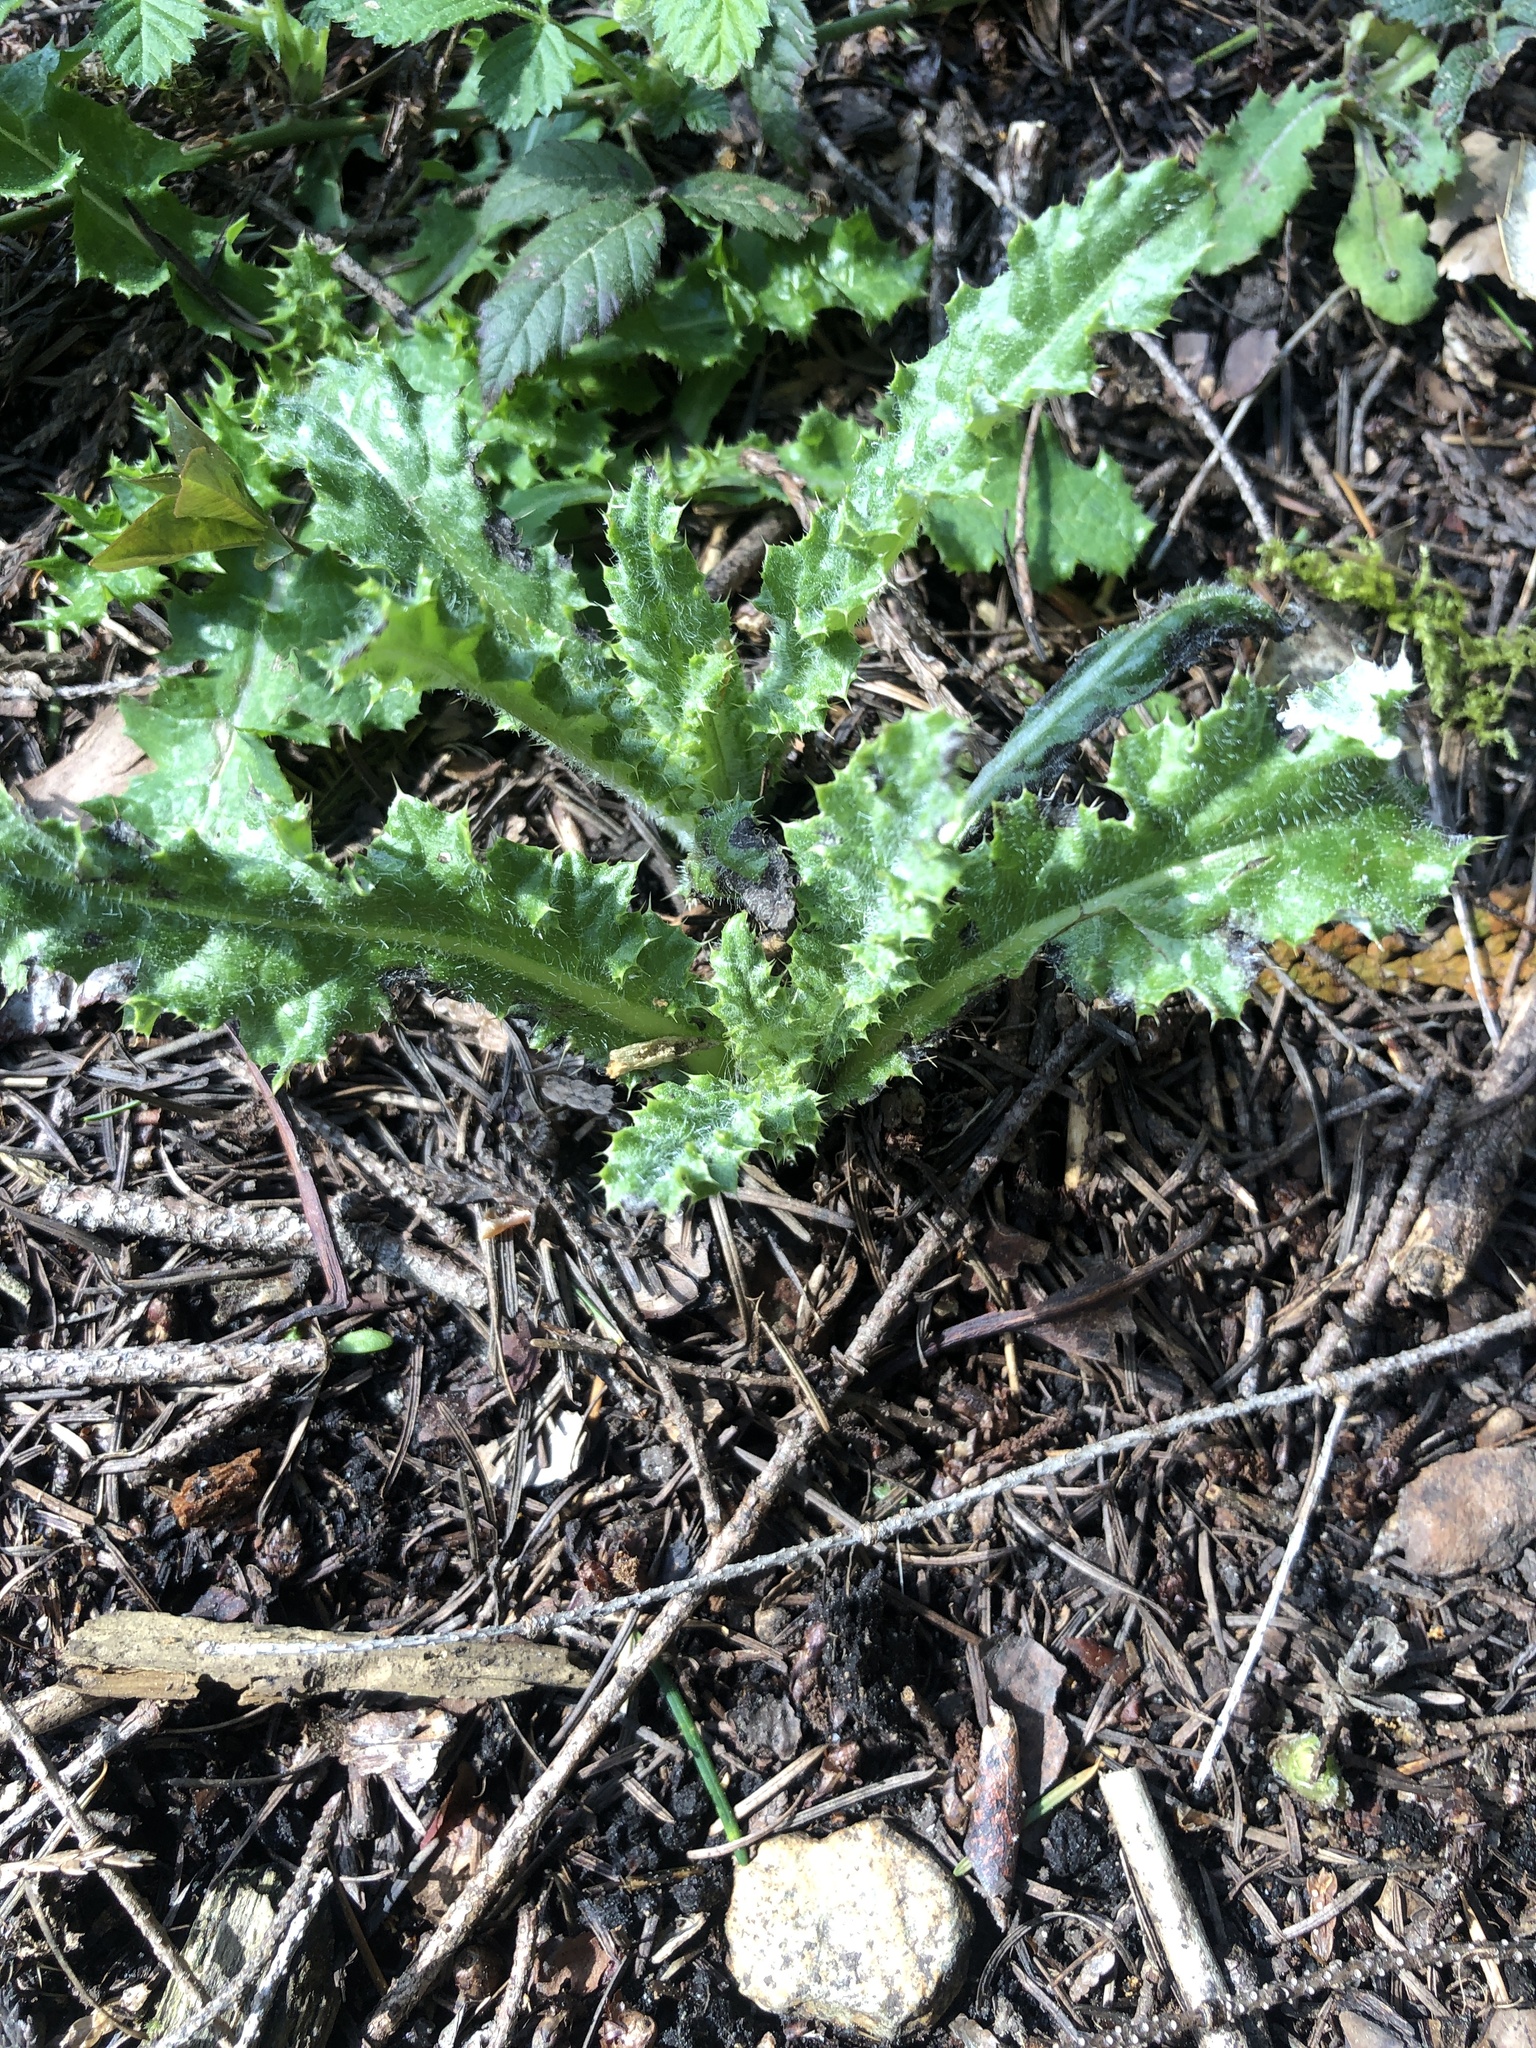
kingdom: Plantae
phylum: Tracheophyta
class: Magnoliopsida
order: Asterales
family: Asteraceae
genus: Cirsium
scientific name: Cirsium arvense
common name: Creeping thistle
